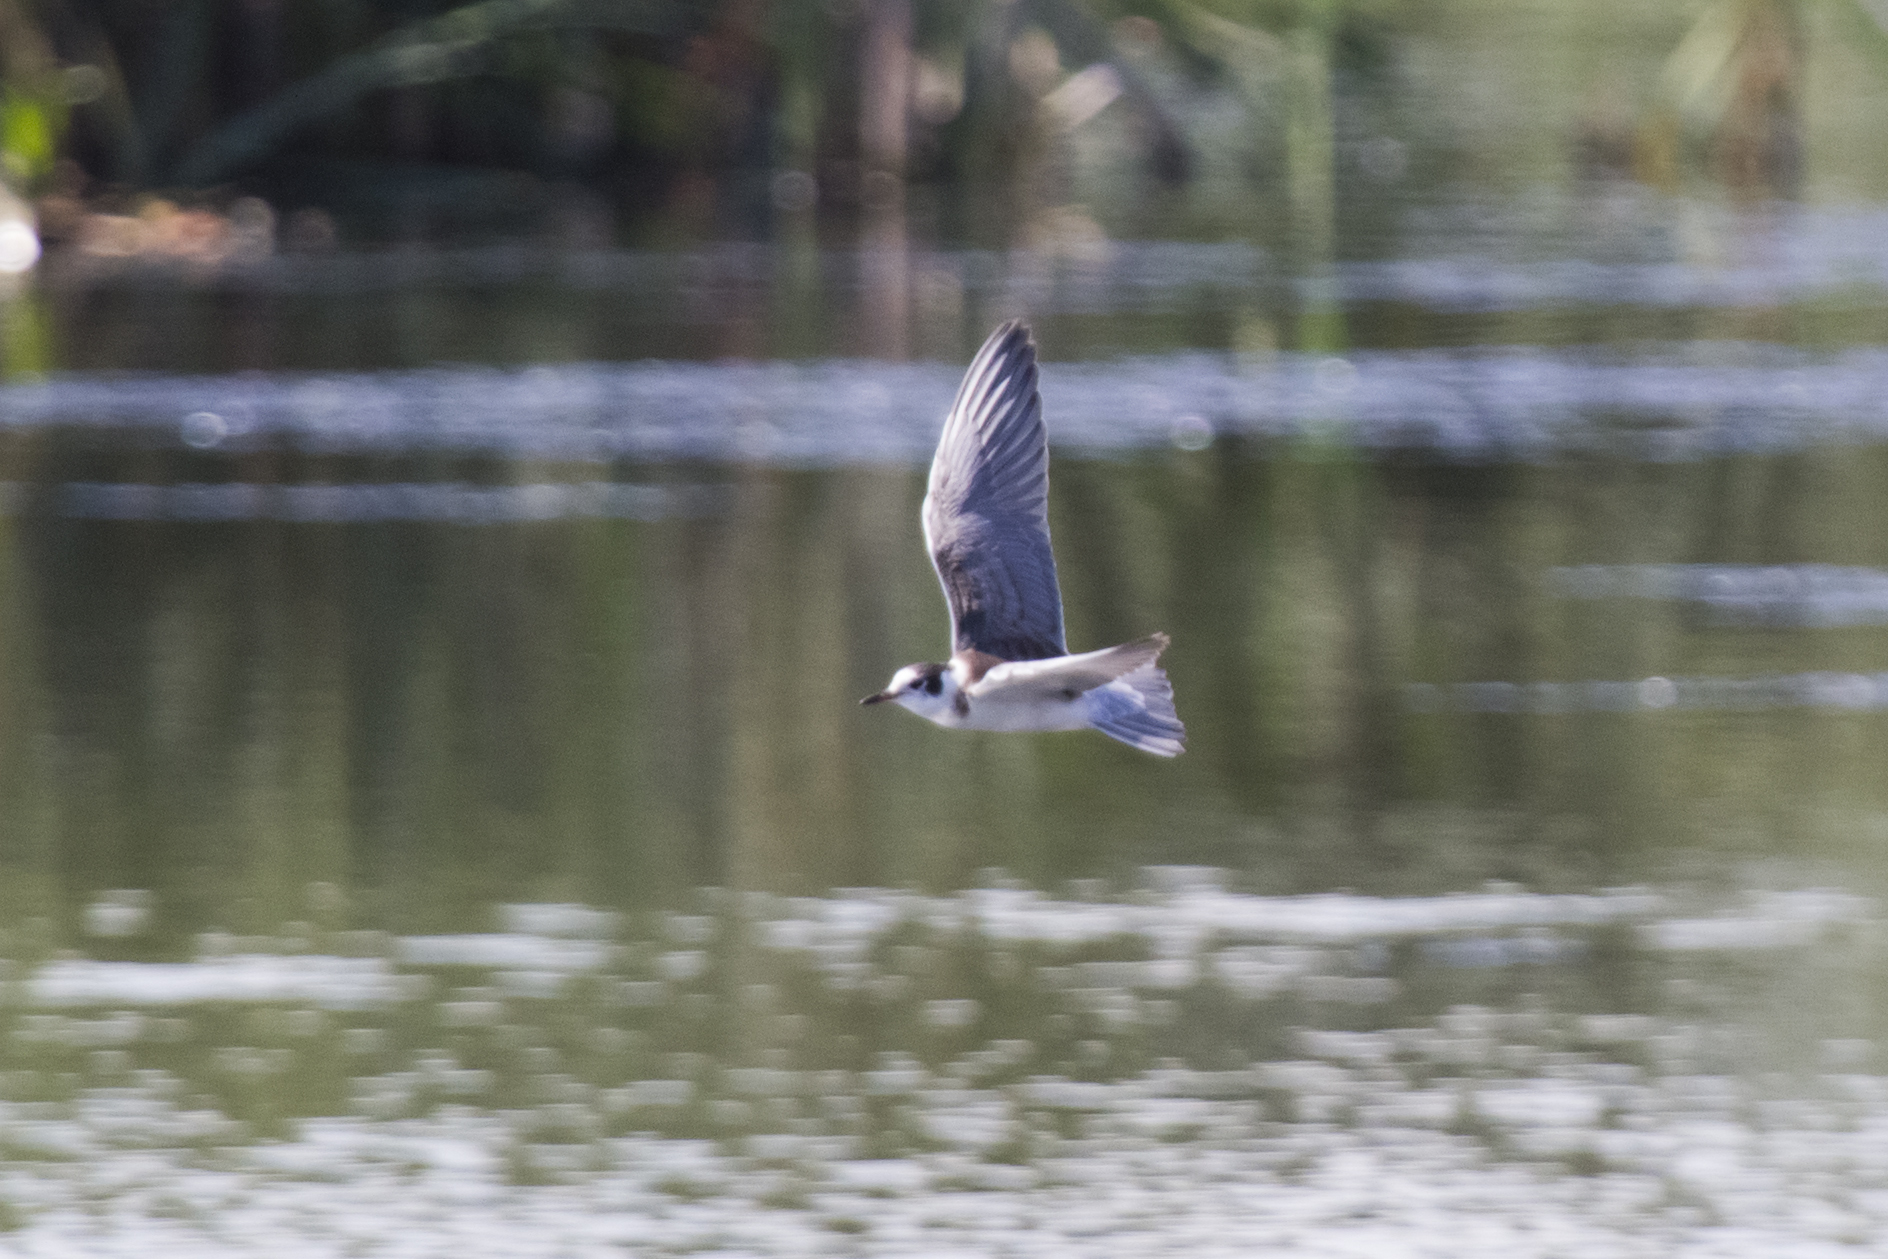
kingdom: Animalia
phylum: Chordata
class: Aves
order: Charadriiformes
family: Laridae
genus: Chlidonias
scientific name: Chlidonias niger
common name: Black tern
